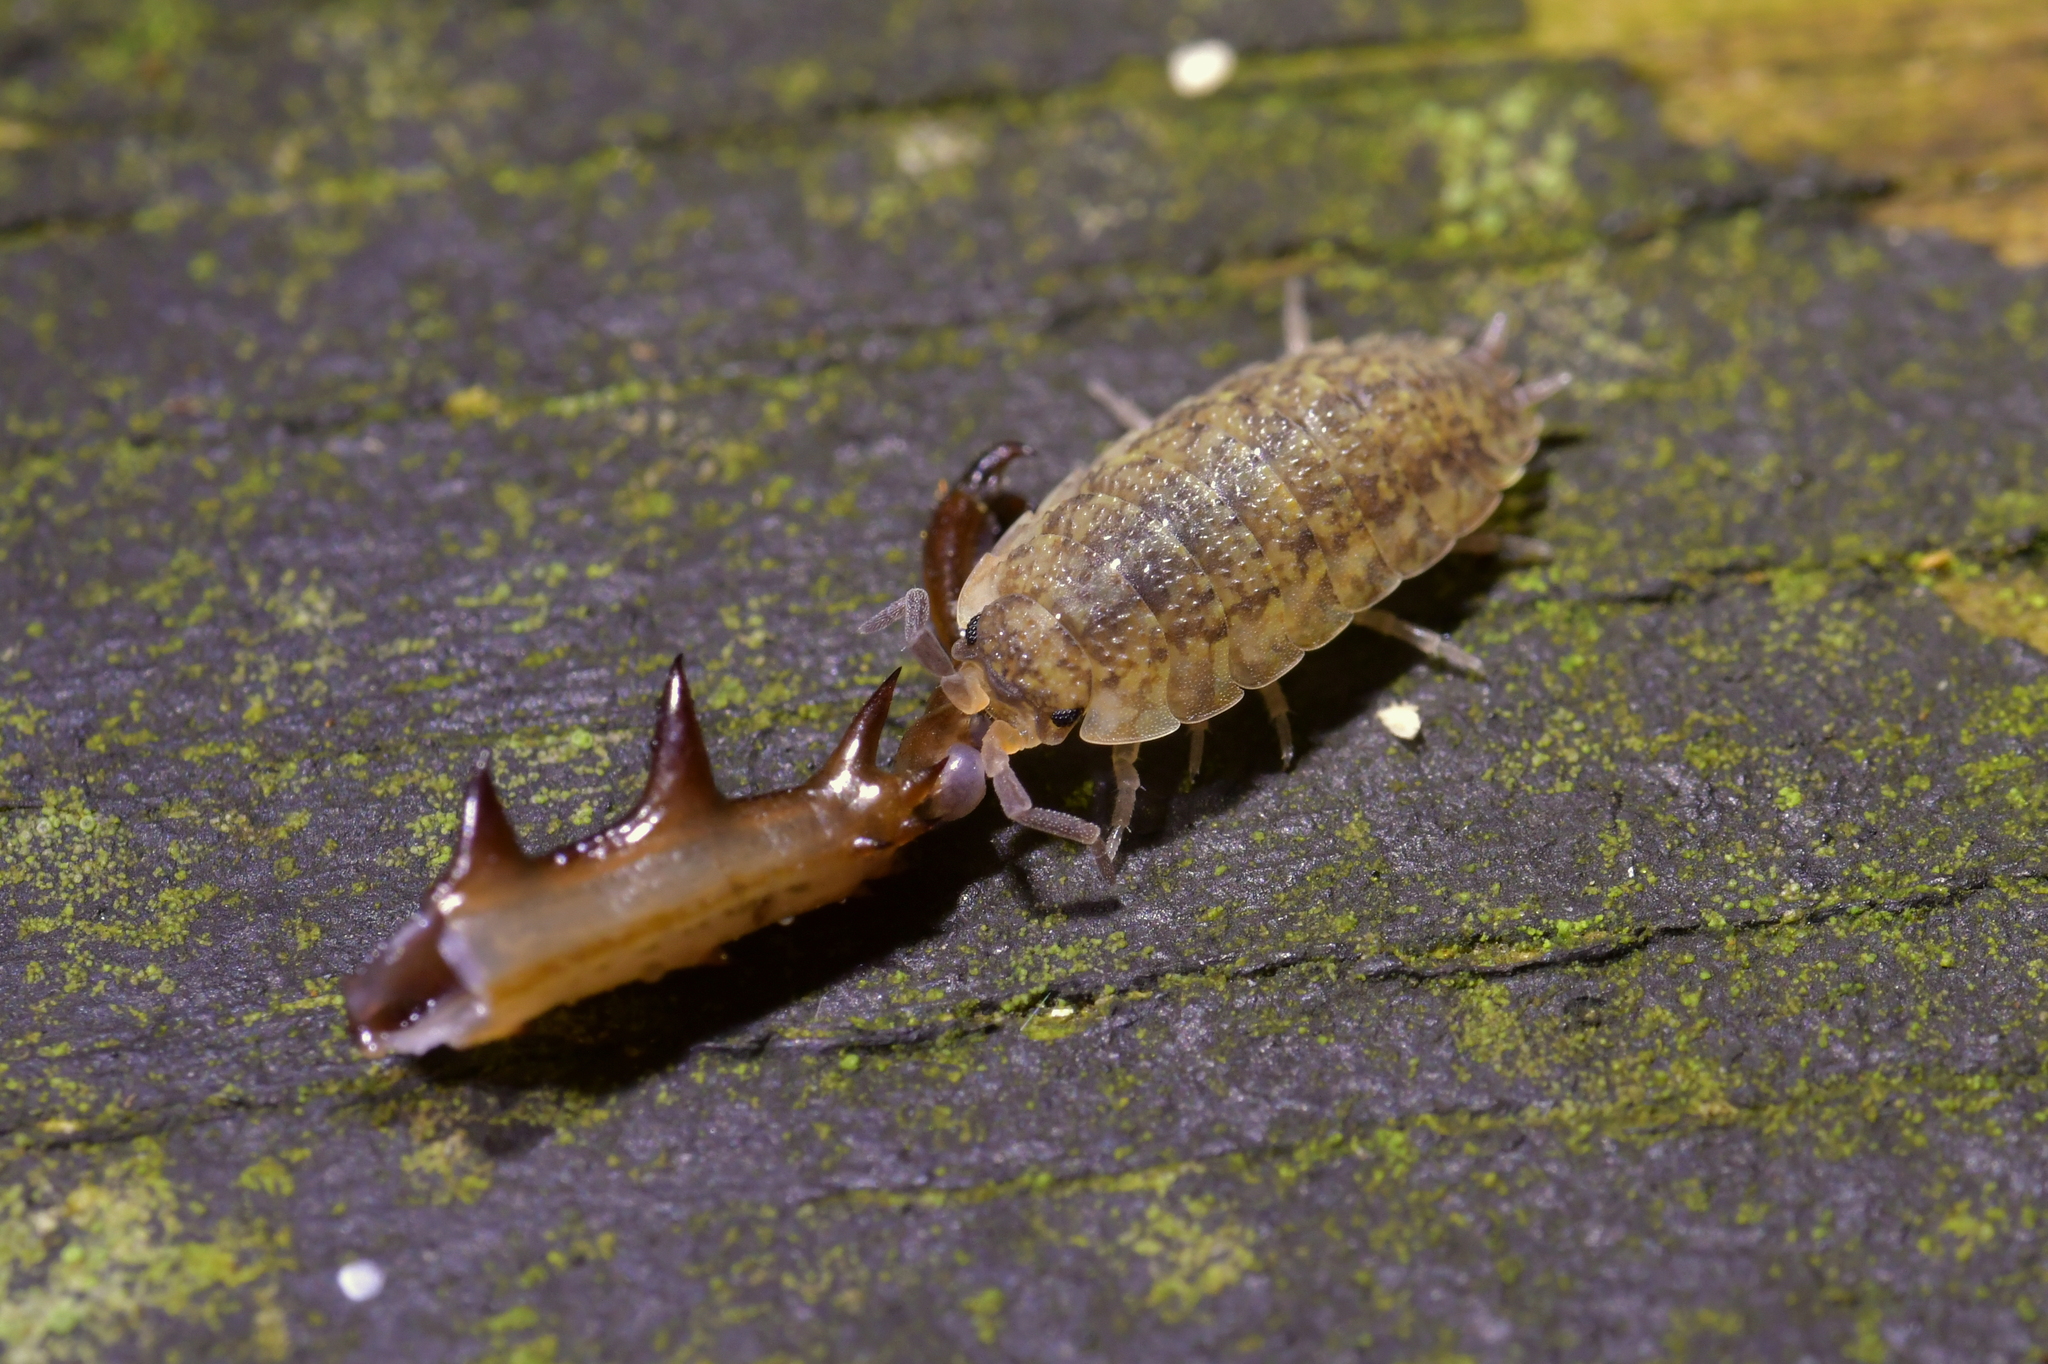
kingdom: Animalia
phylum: Arthropoda
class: Malacostraca
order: Isopoda
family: Porcellionidae
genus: Porcellio
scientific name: Porcellio scaber
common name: Common rough woodlouse
